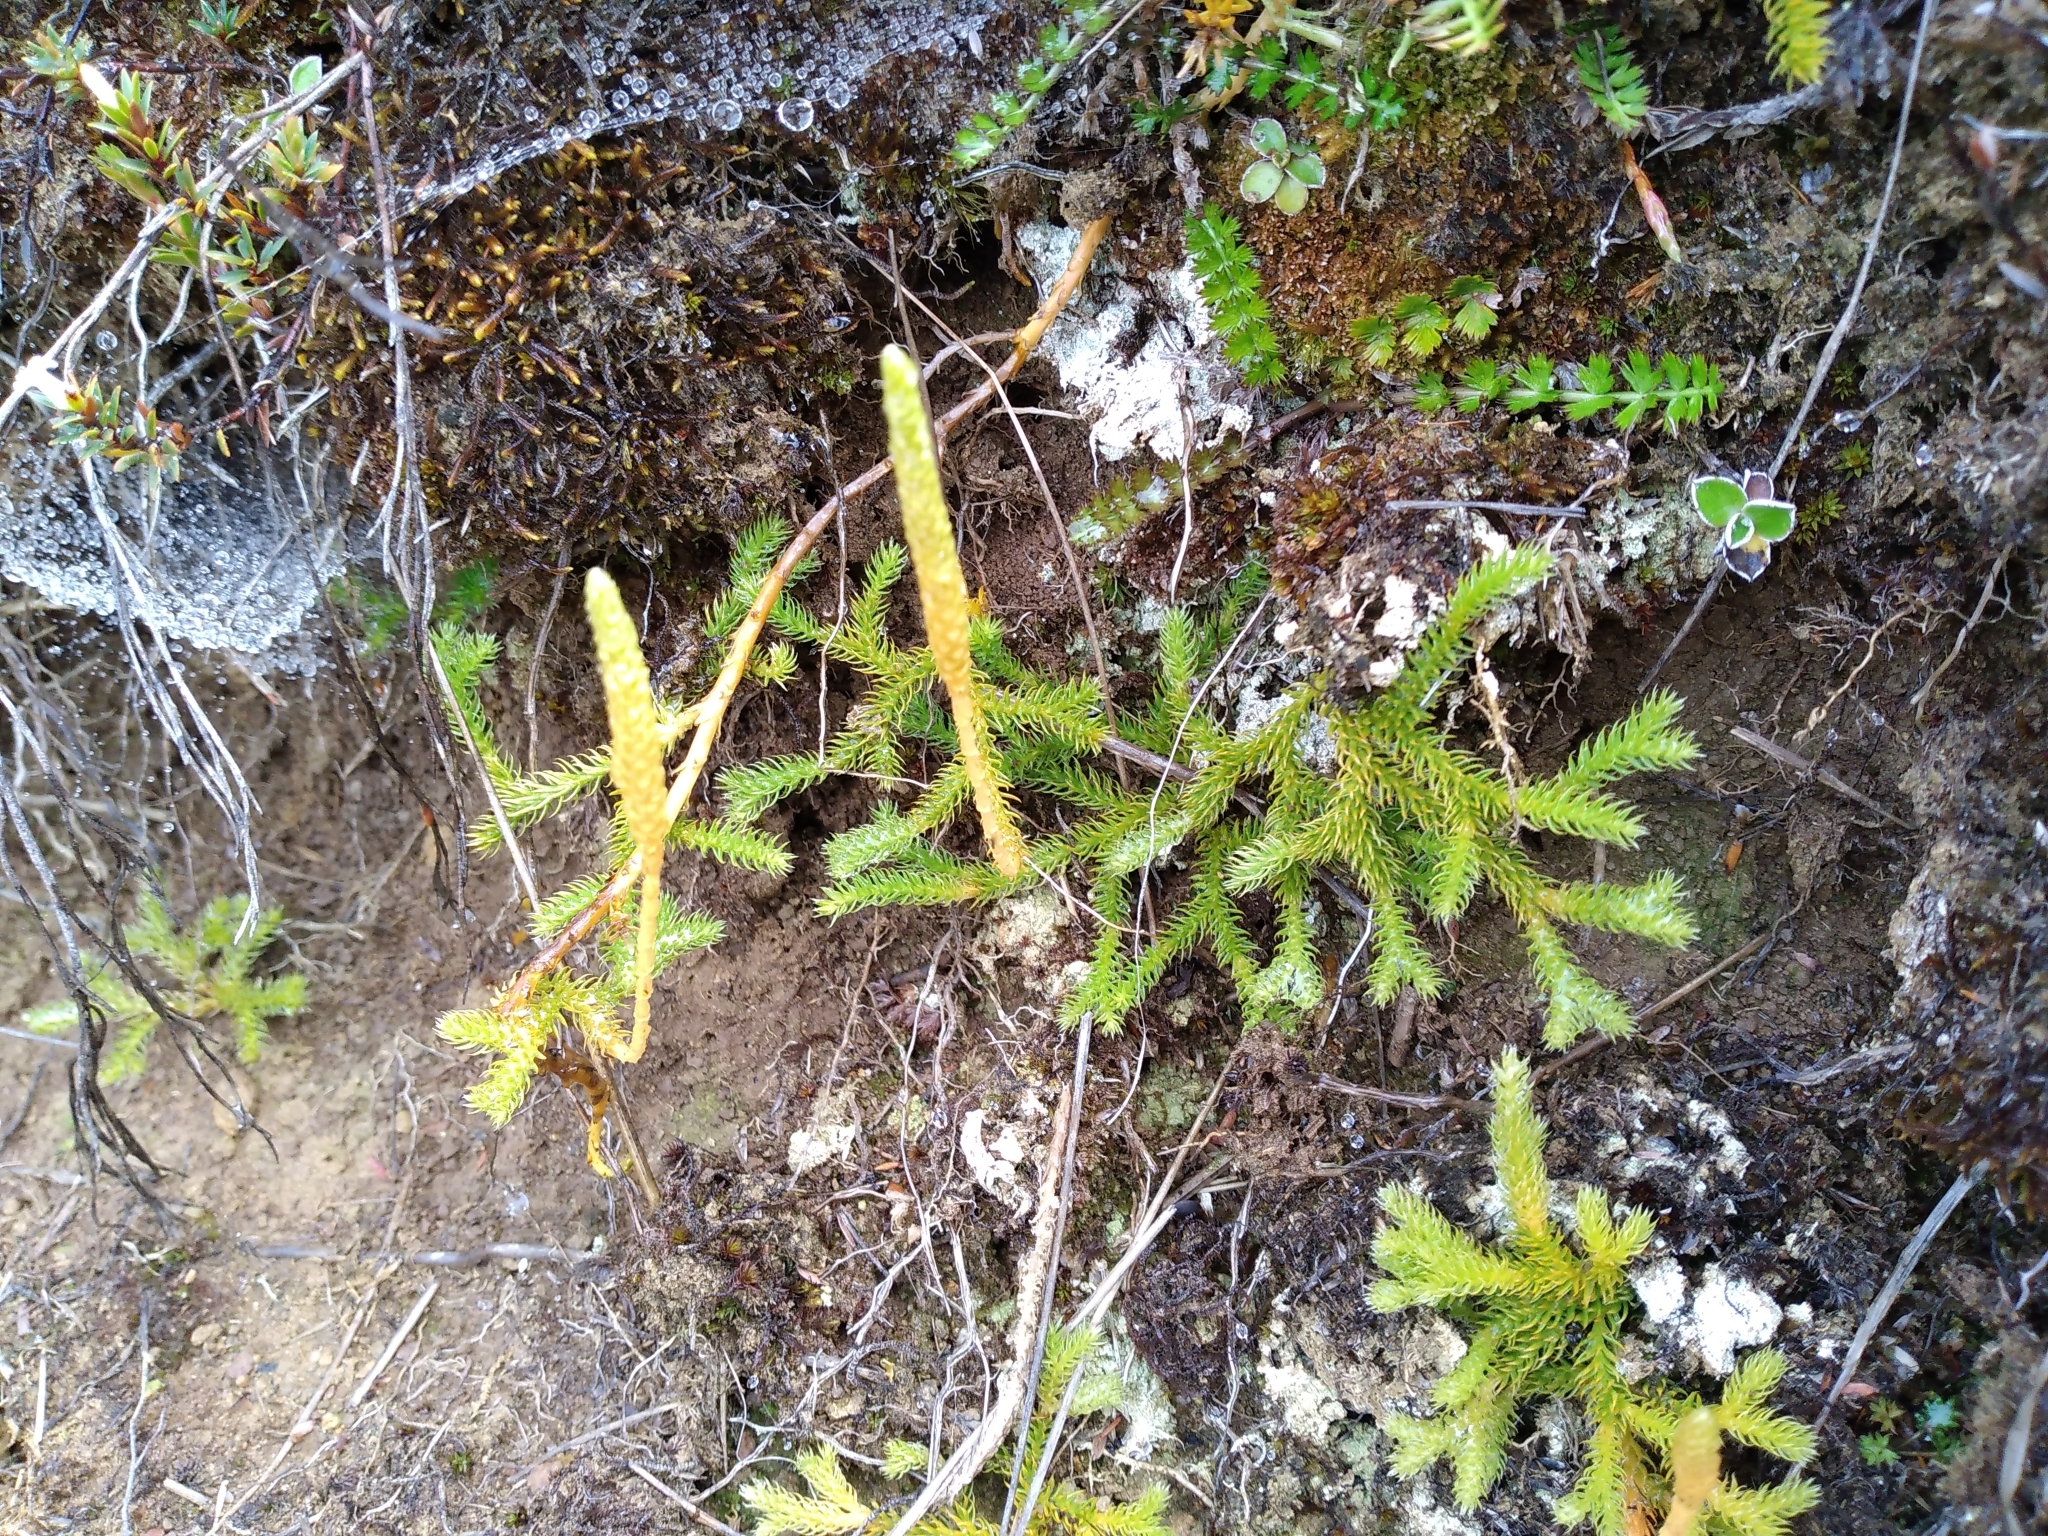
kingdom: Plantae
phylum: Tracheophyta
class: Lycopodiopsida
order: Lycopodiales
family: Lycopodiaceae
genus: Austrolycopodium
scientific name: Austrolycopodium fastigiatum
